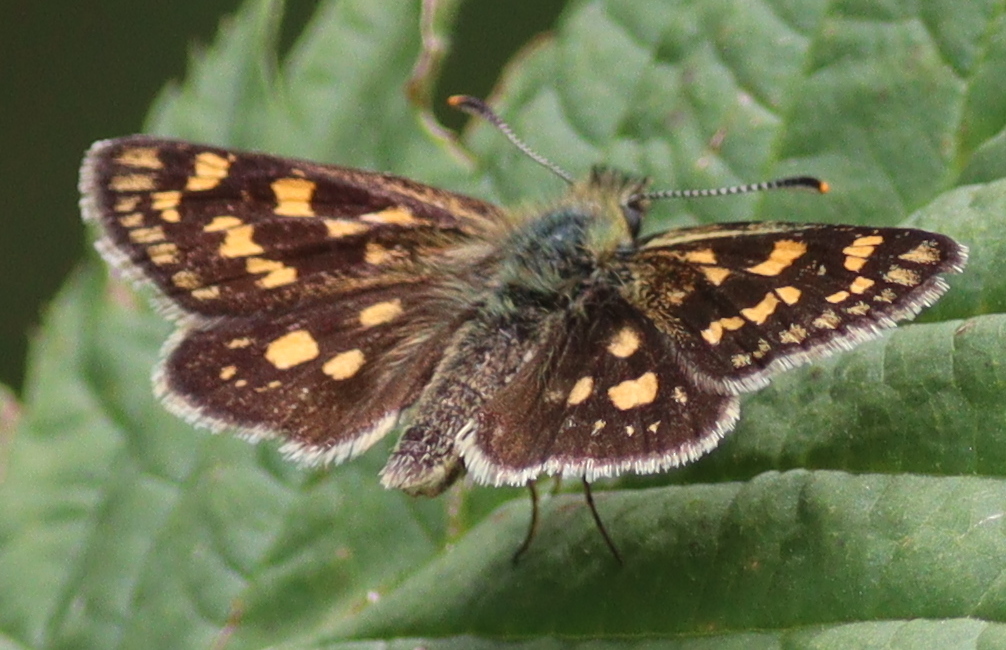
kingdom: Animalia
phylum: Arthropoda
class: Insecta
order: Lepidoptera
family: Hesperiidae
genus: Carterocephalus
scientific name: Carterocephalus palaemon
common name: Chequered skipper
